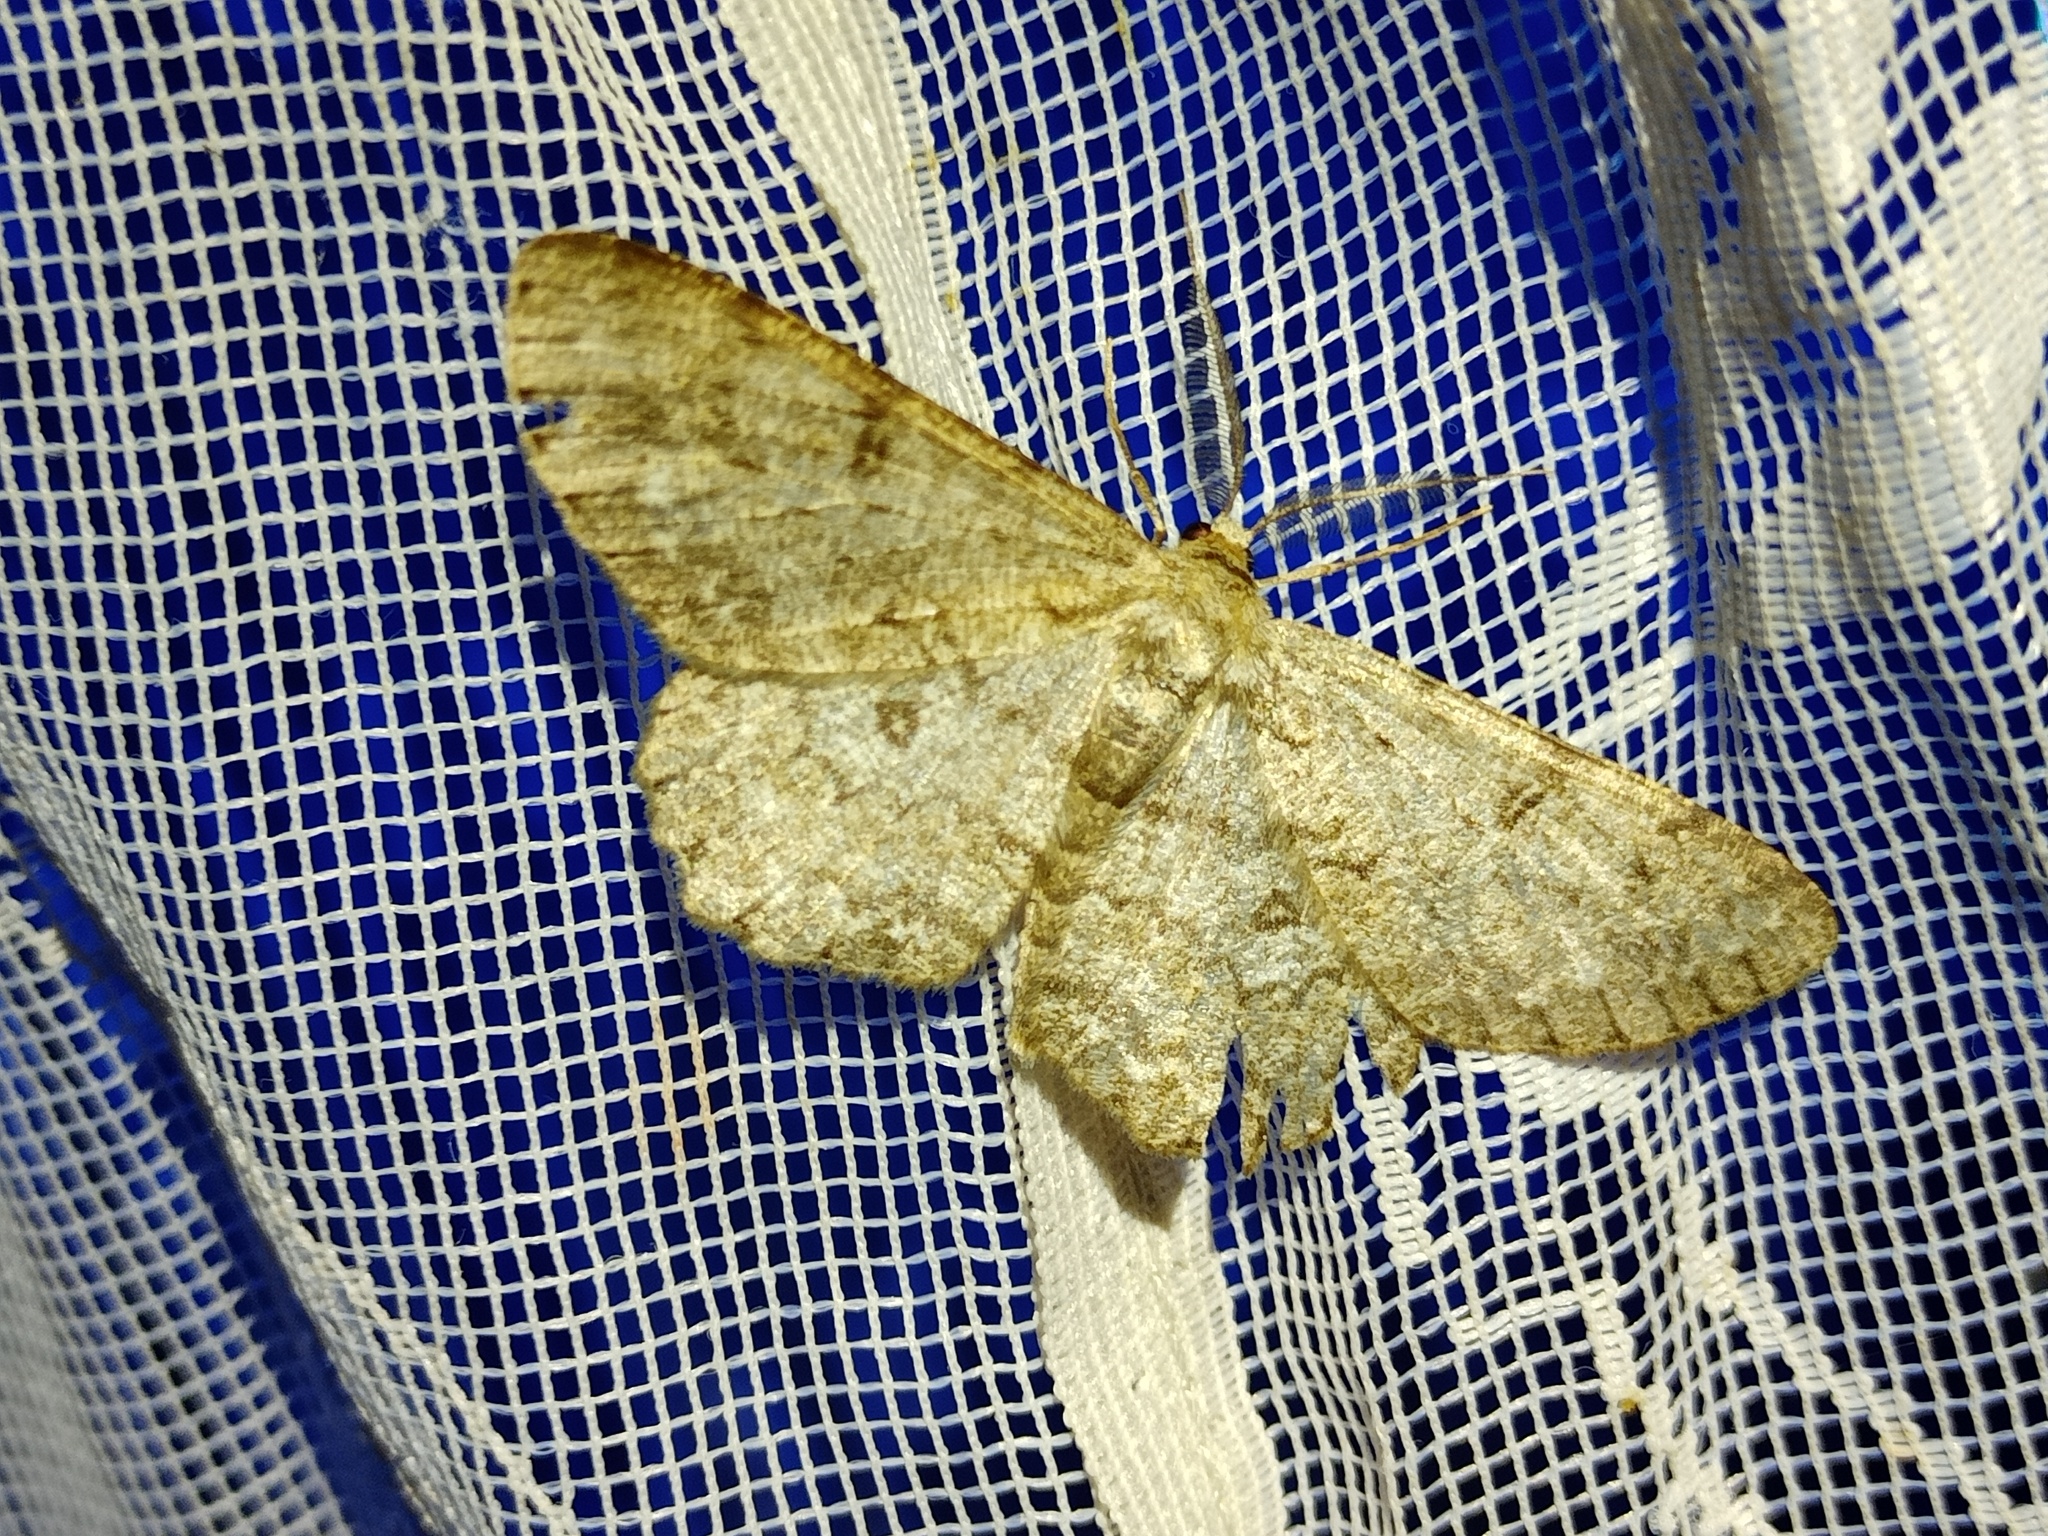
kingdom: Animalia
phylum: Arthropoda
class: Insecta
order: Lepidoptera
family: Geometridae
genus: Hypomecis
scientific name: Hypomecis punctinalis
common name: Pale oak beauty
